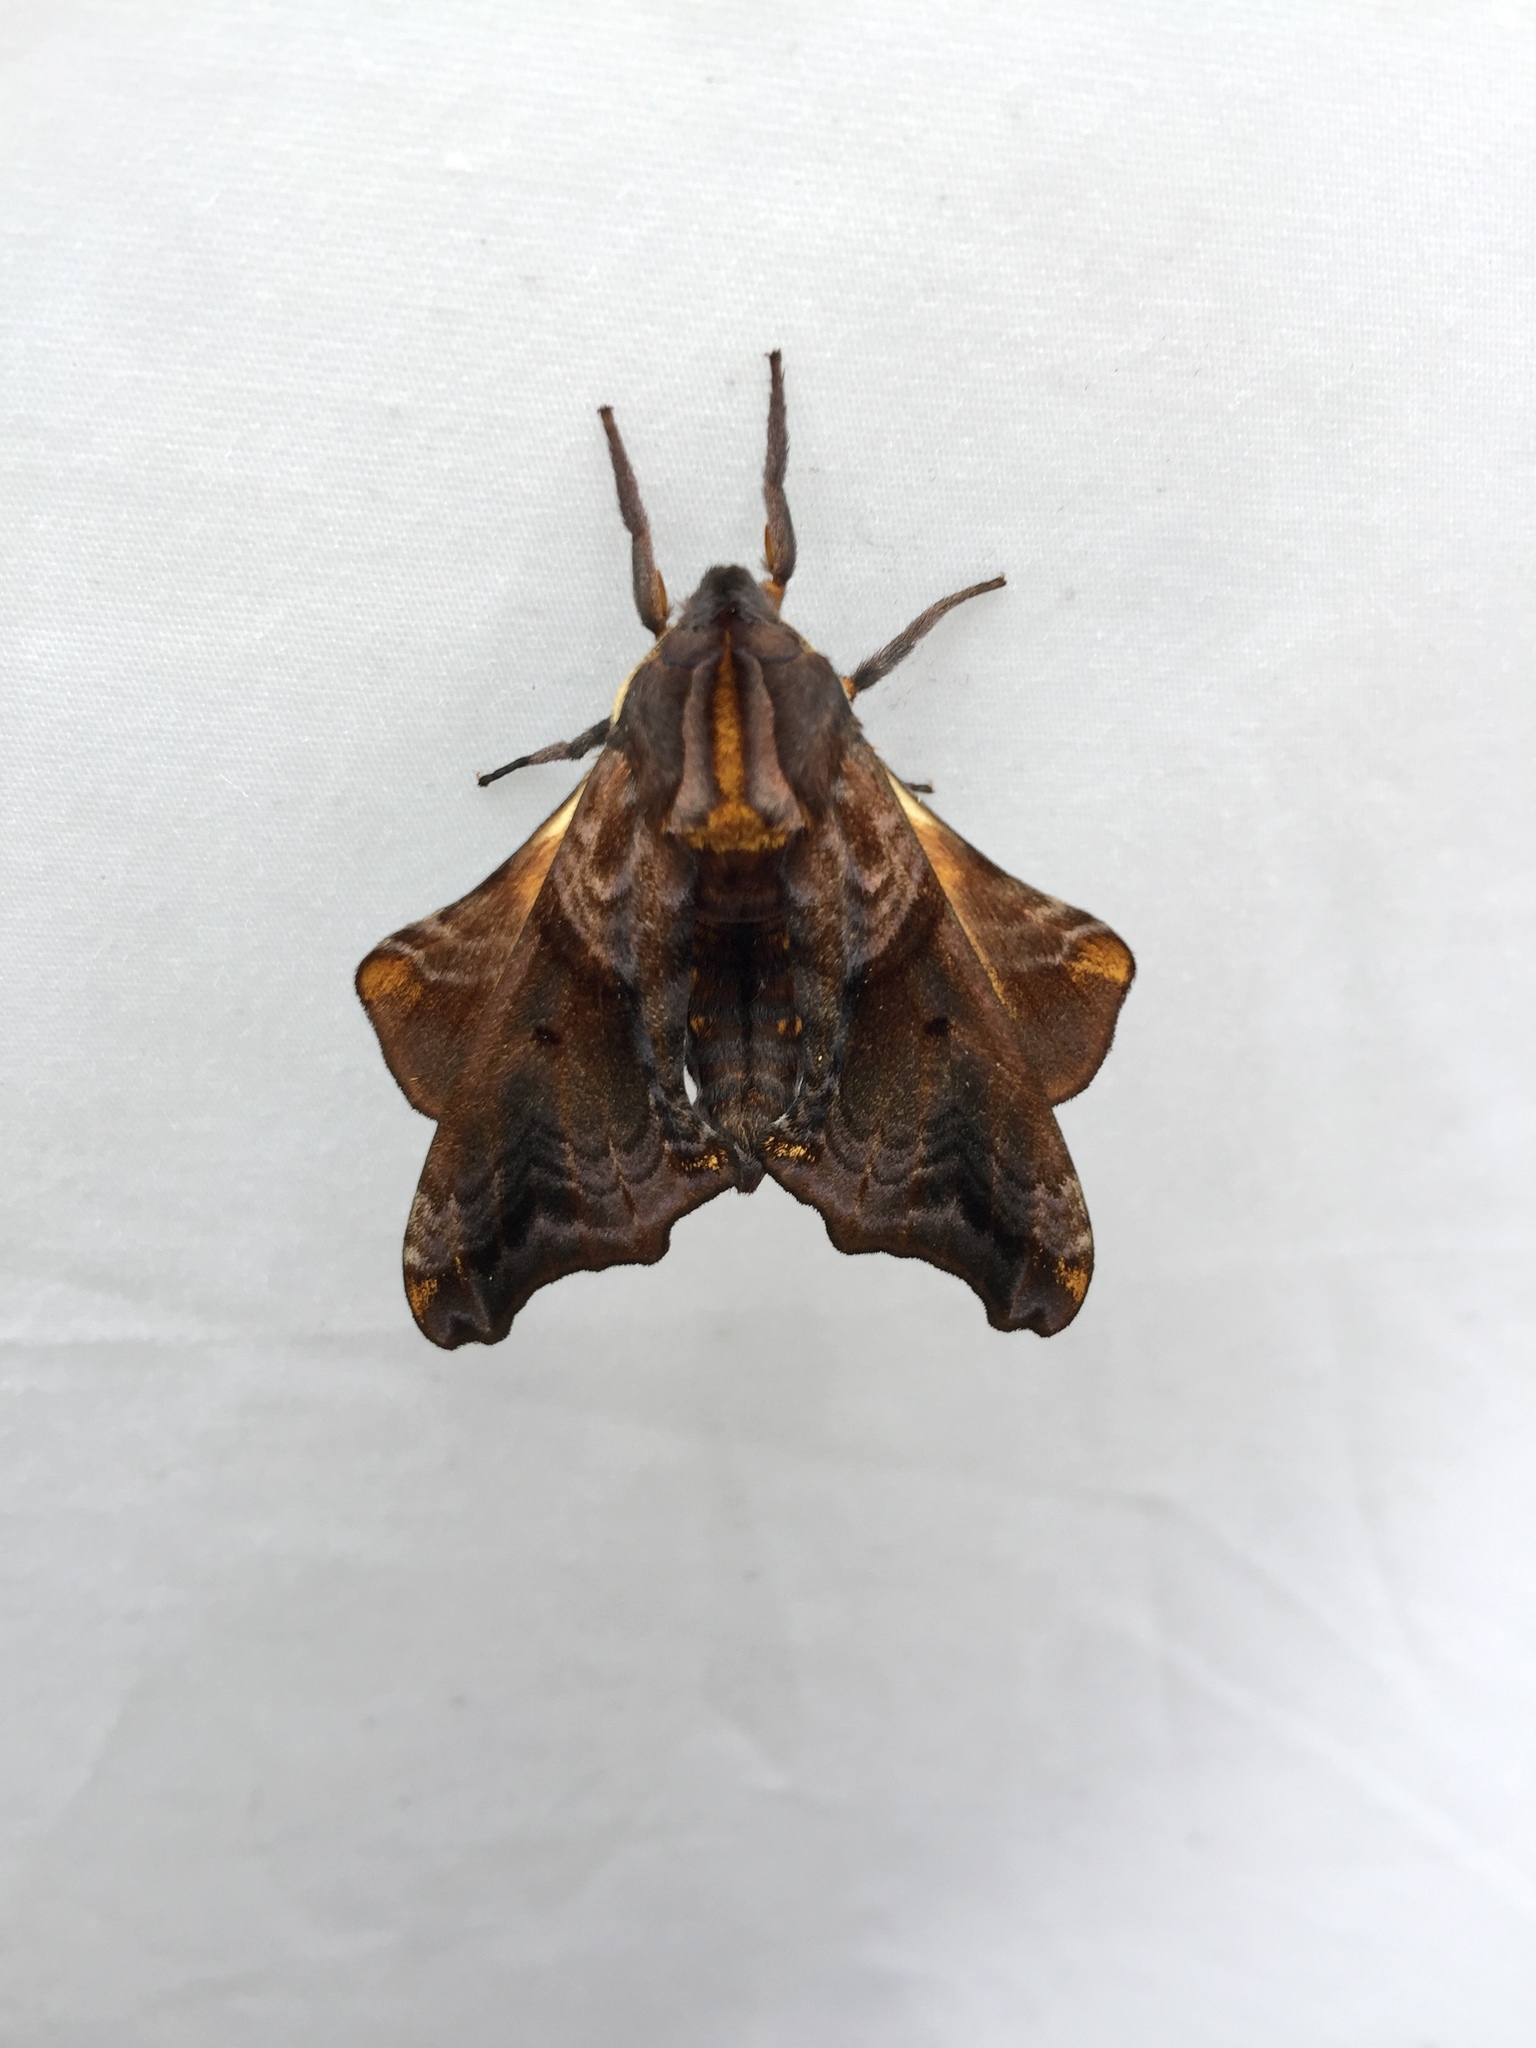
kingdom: Animalia
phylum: Arthropoda
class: Insecta
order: Lepidoptera
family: Sphingidae
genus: Paonias
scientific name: Paonias myops
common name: Small-eyed sphinx
